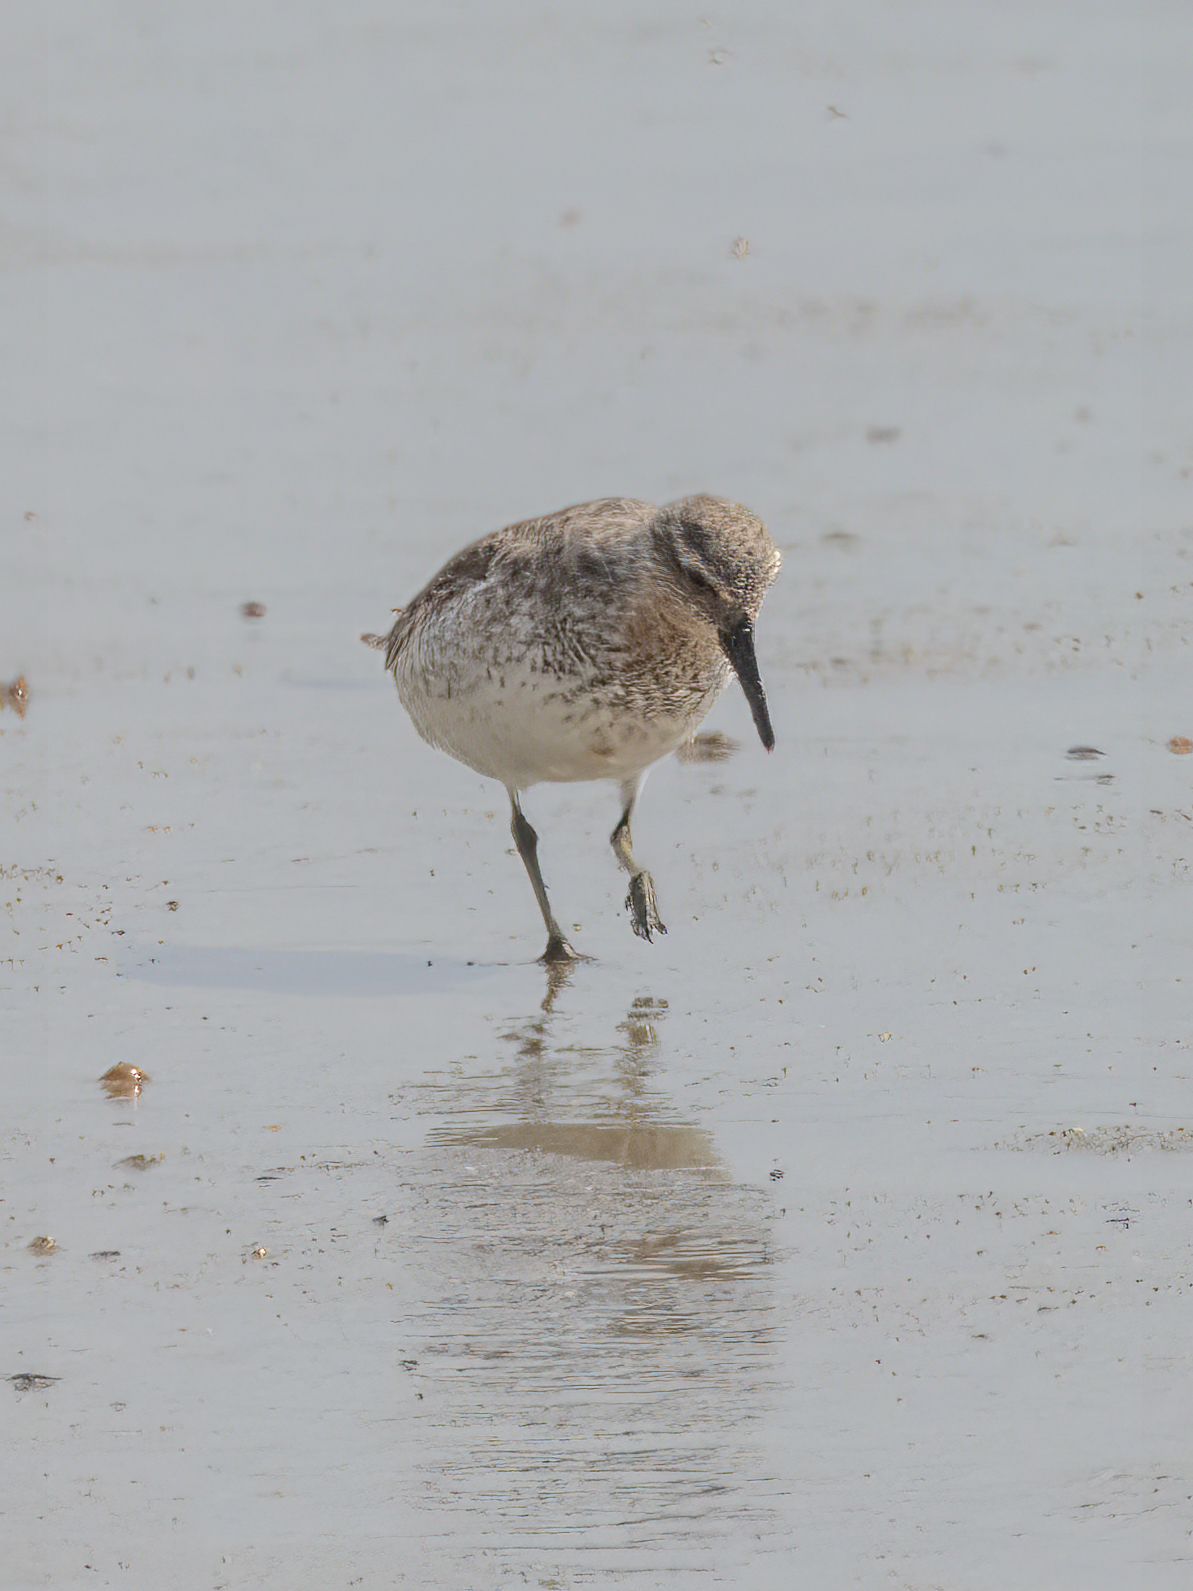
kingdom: Animalia
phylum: Chordata
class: Aves
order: Charadriiformes
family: Scolopacidae
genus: Calidris
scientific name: Calidris alba
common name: Sanderling
